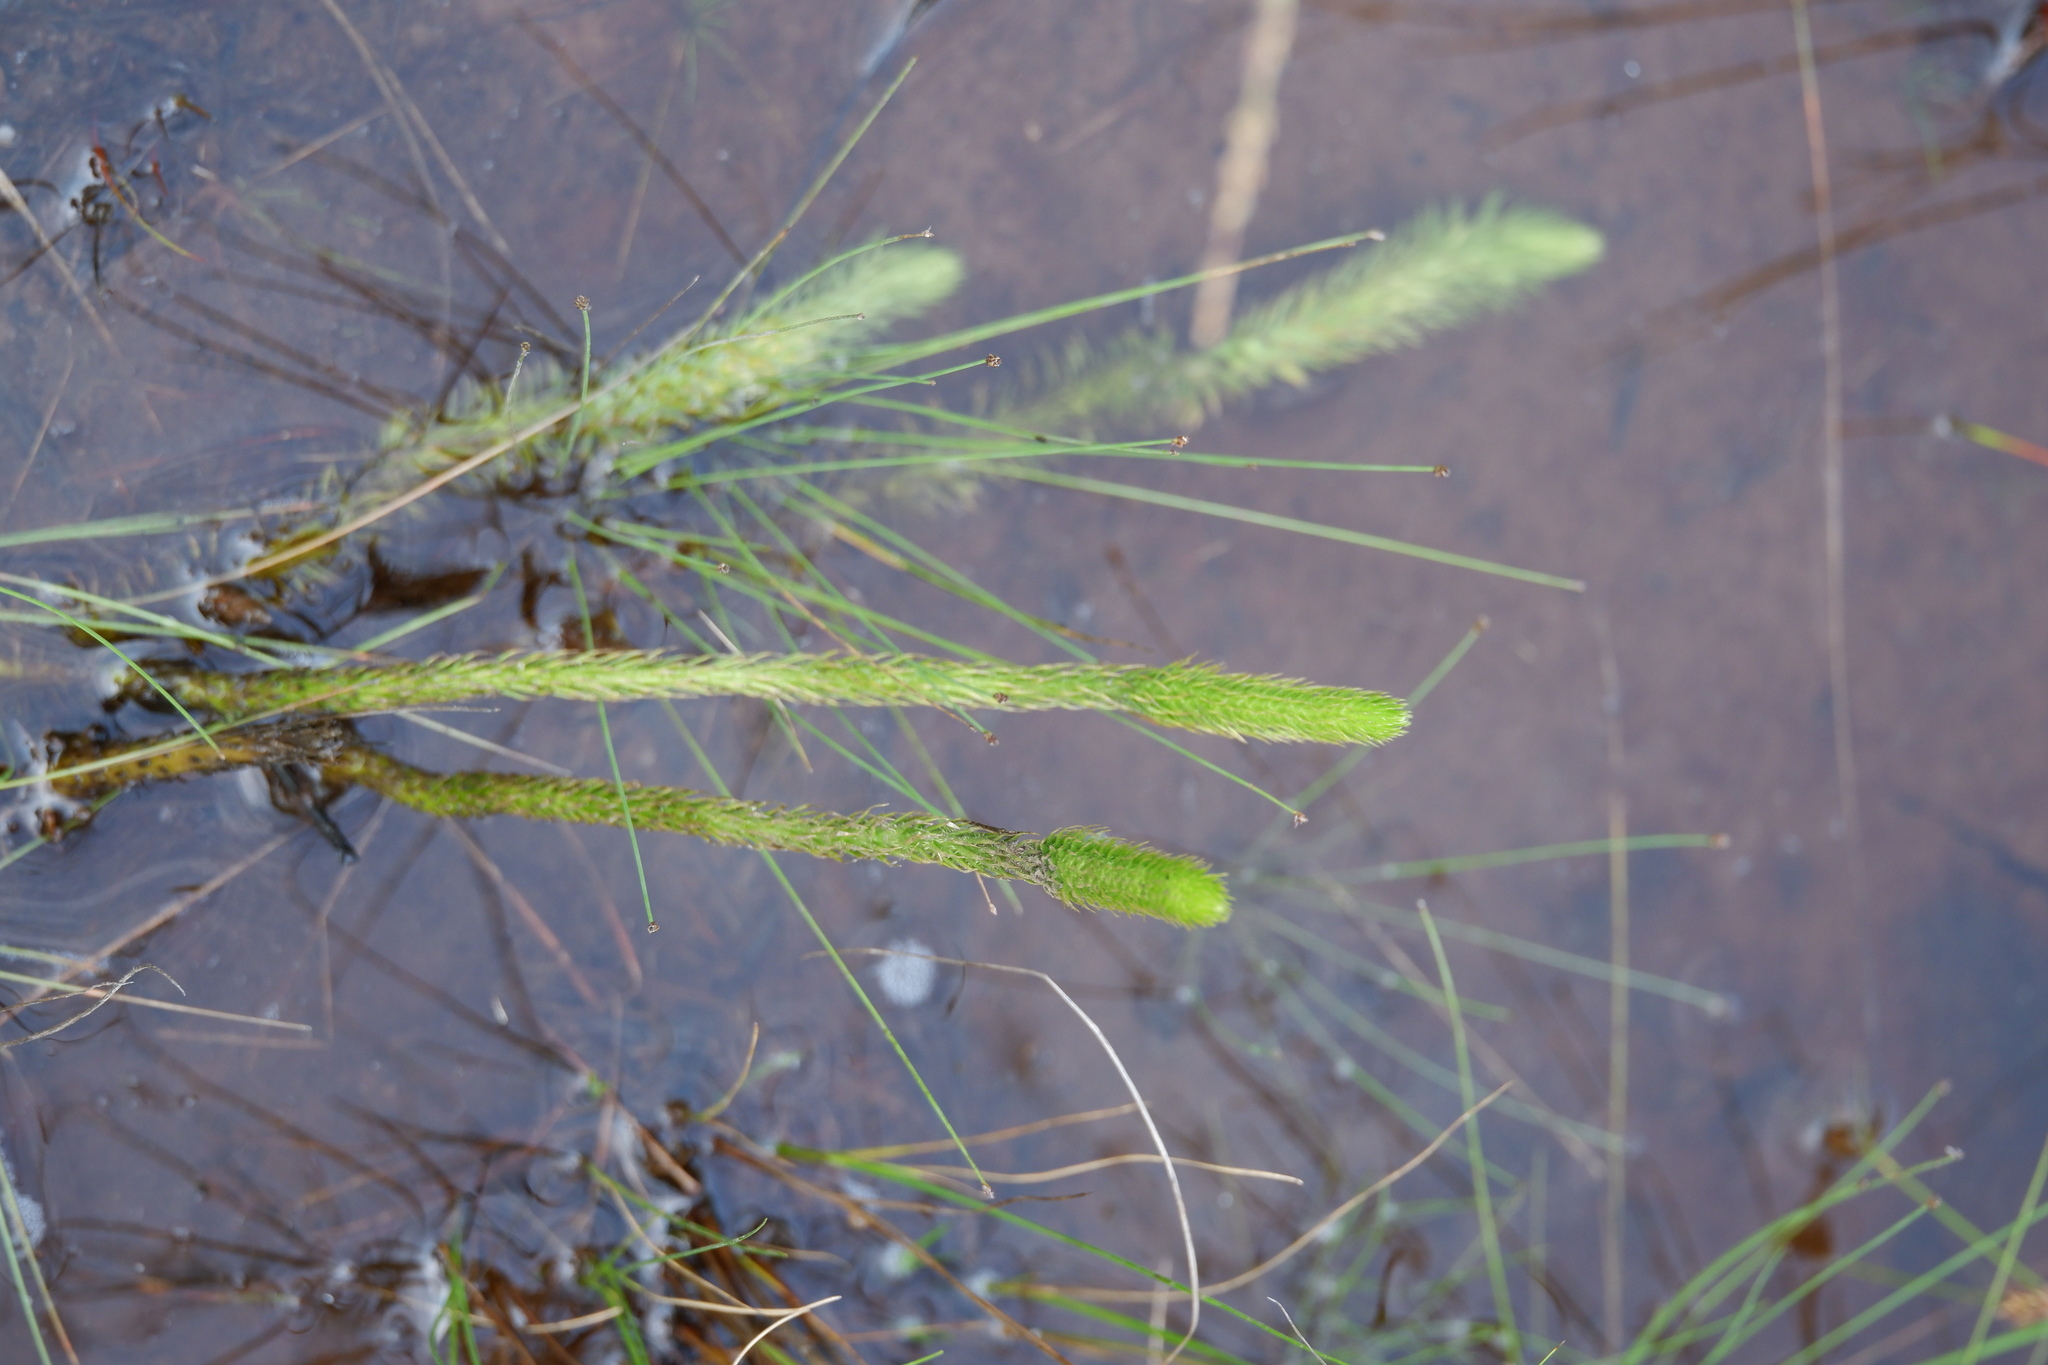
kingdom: Plantae
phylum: Tracheophyta
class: Lycopodiopsida
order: Lycopodiales
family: Lycopodiaceae
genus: Lycopodiella
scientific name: Lycopodiella alopecuroides
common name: Foxtail clubmoss
